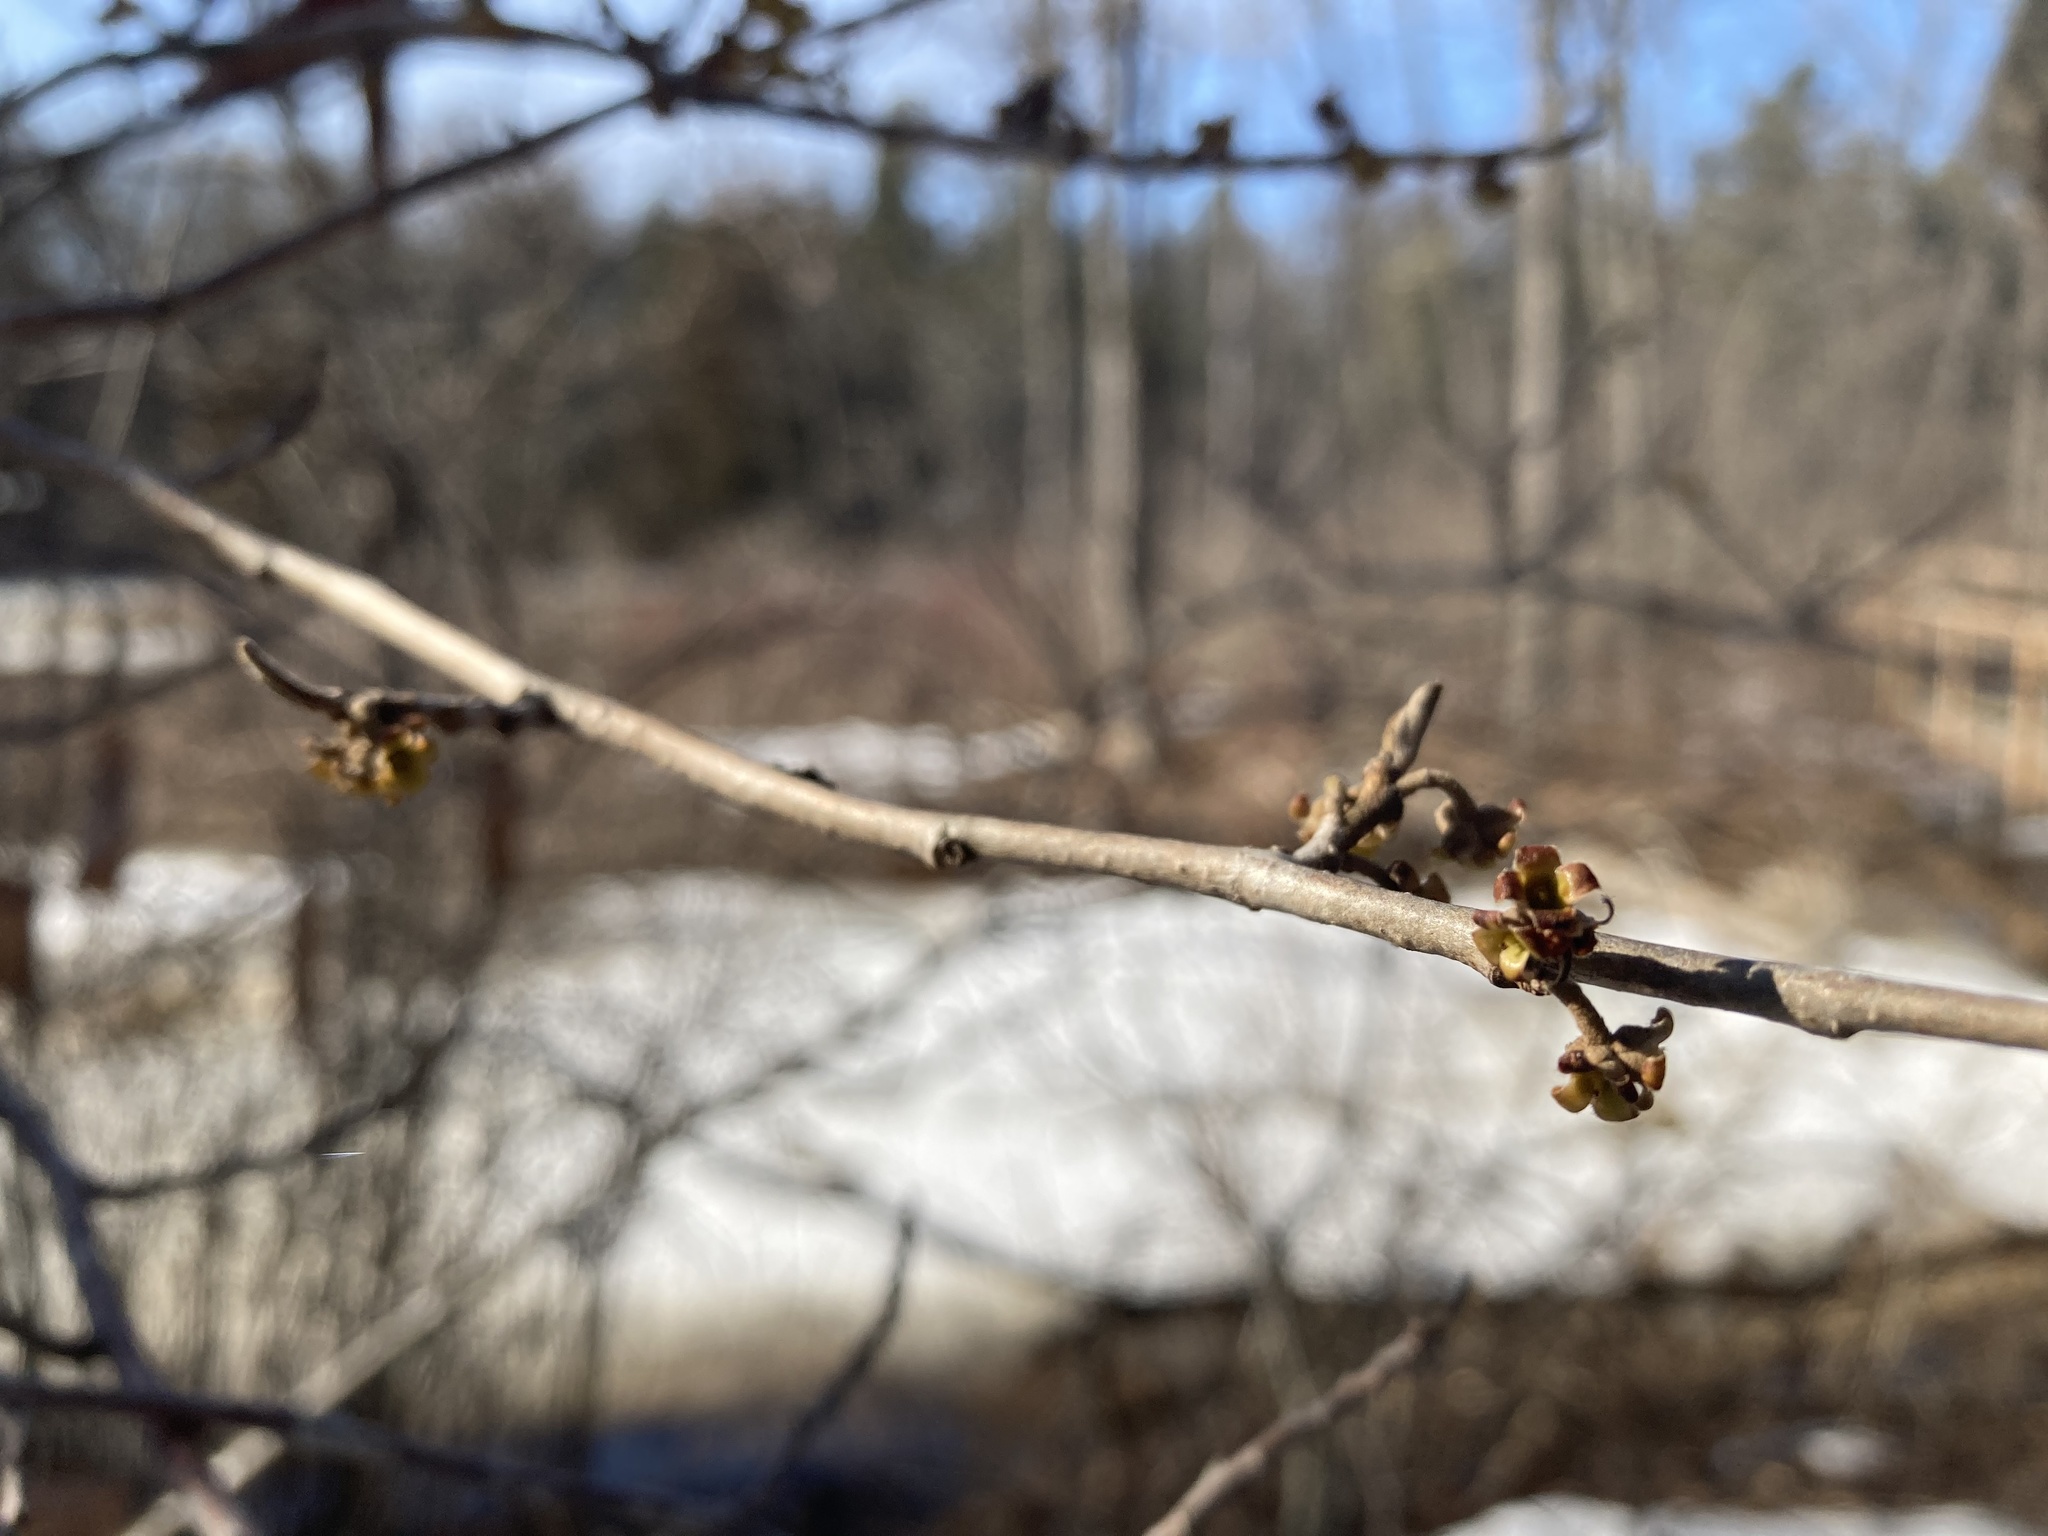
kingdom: Plantae
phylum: Tracheophyta
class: Magnoliopsida
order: Saxifragales
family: Hamamelidaceae
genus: Hamamelis
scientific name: Hamamelis virginiana
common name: Witch-hazel
